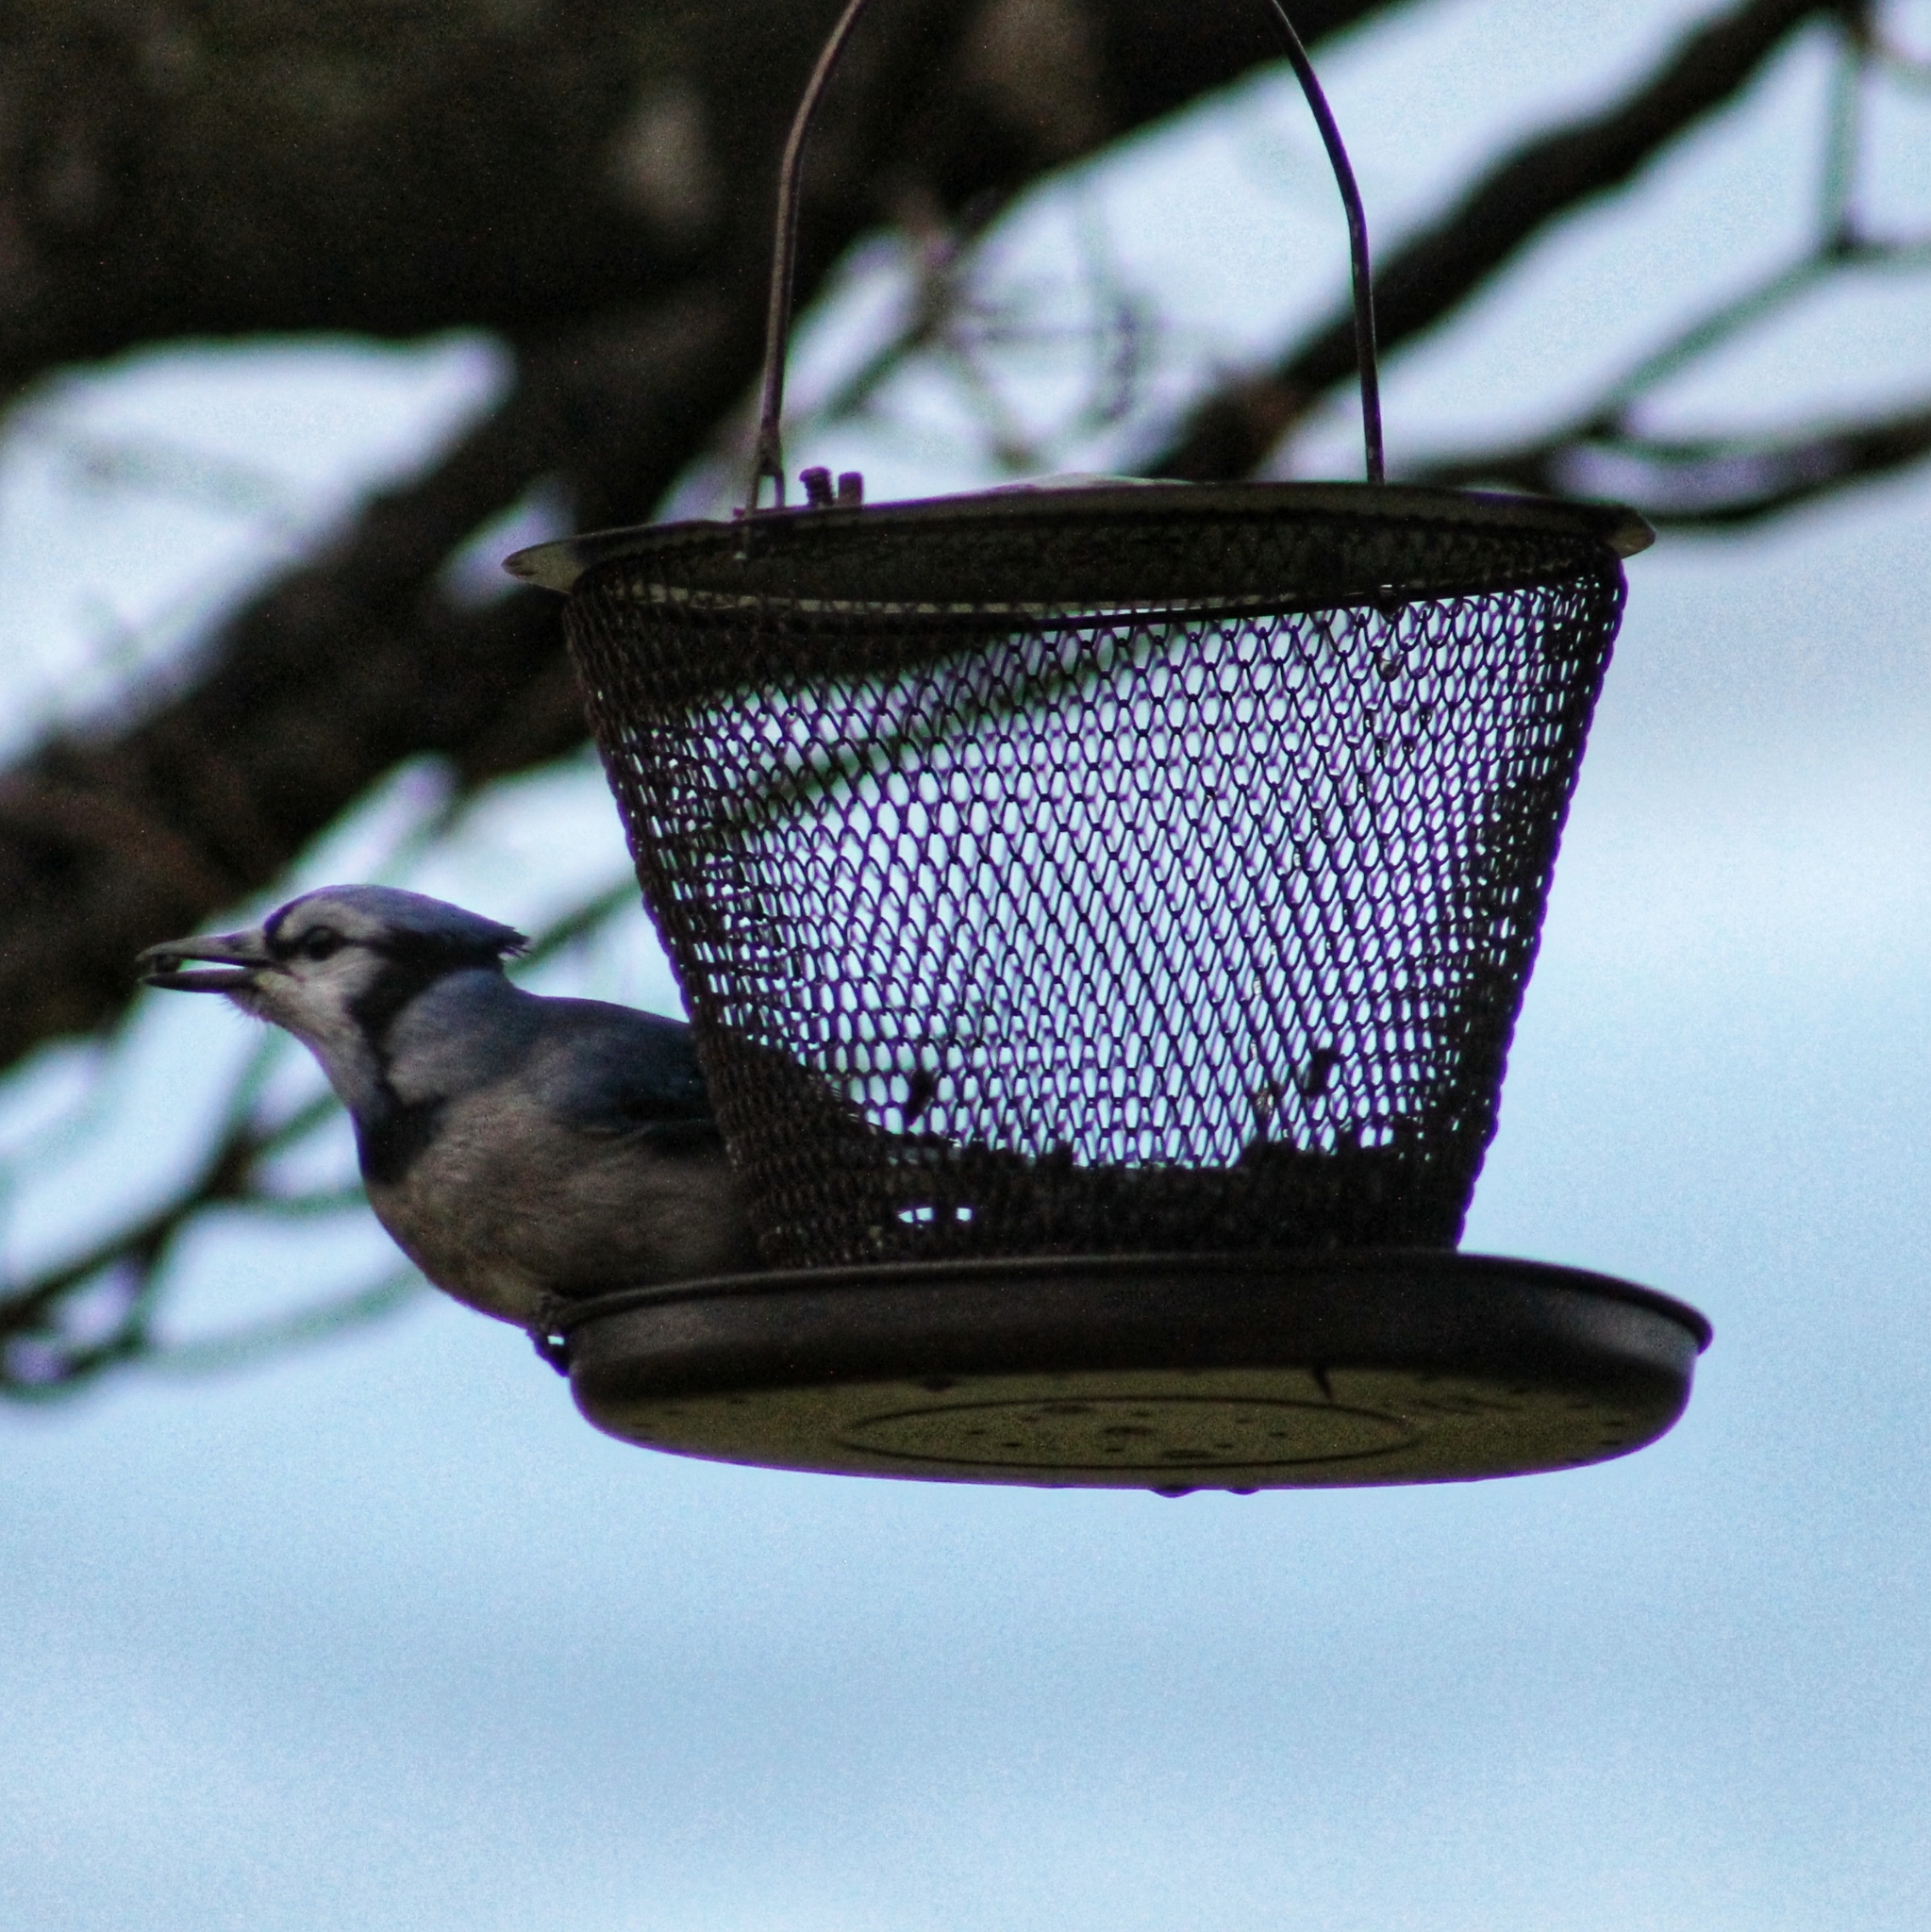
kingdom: Animalia
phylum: Chordata
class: Aves
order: Passeriformes
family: Corvidae
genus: Cyanocitta
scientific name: Cyanocitta cristata
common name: Blue jay
